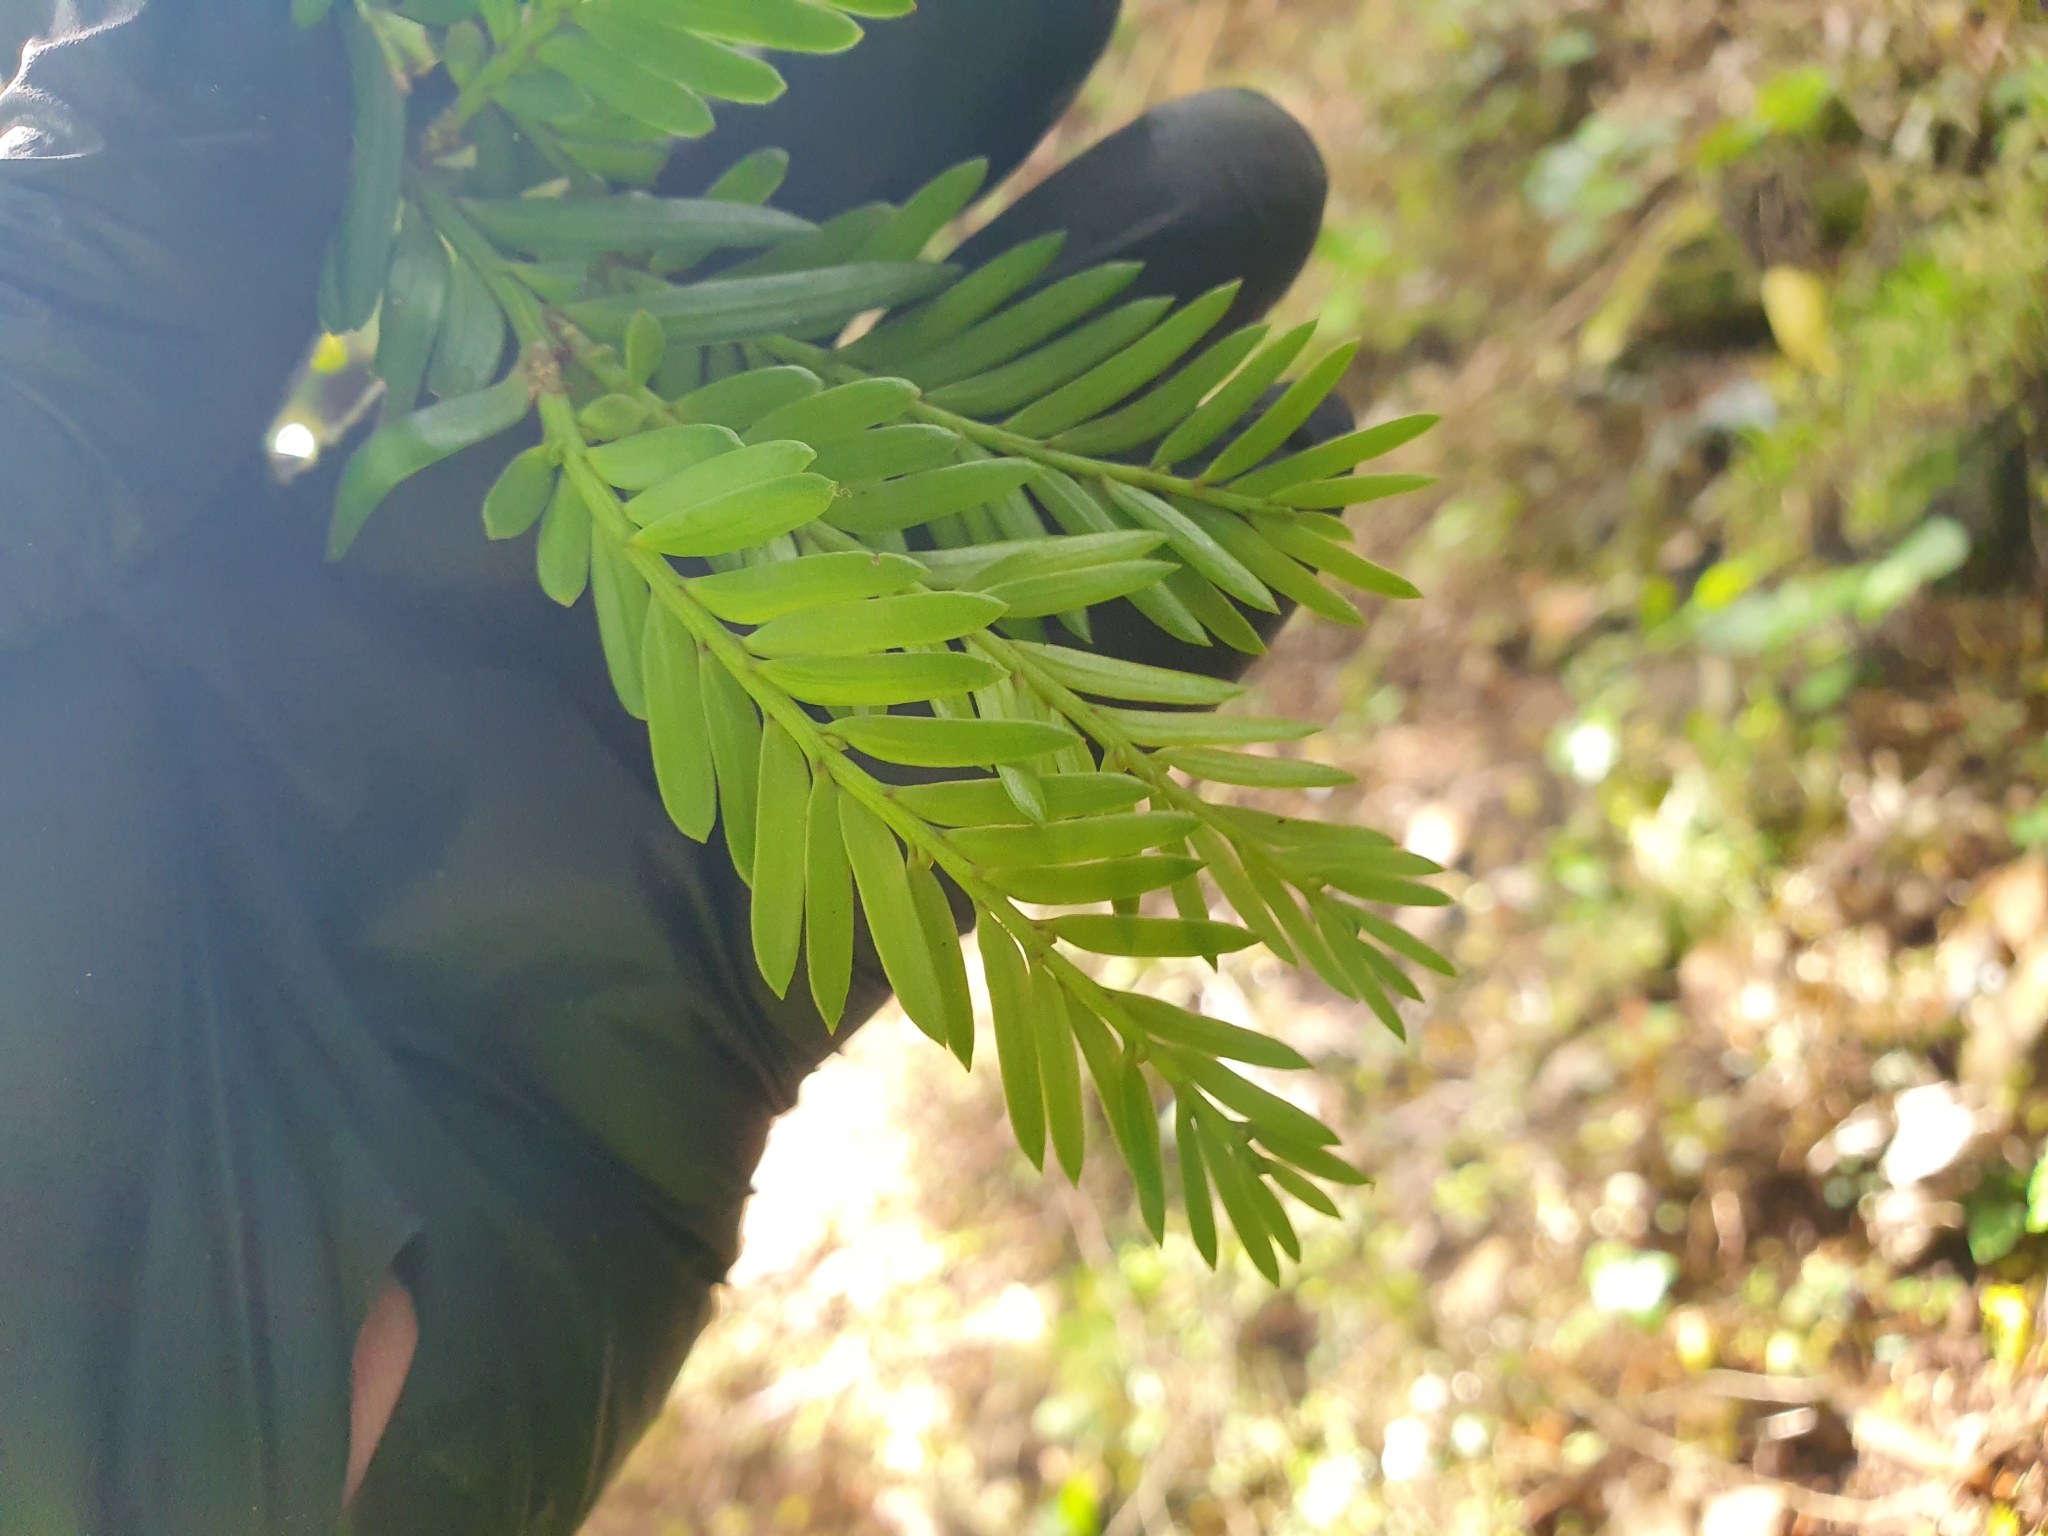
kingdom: Plantae
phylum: Tracheophyta
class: Pinopsida
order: Pinales
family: Podocarpaceae
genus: Prumnopitys
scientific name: Prumnopitys ferruginea
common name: Brown pine
